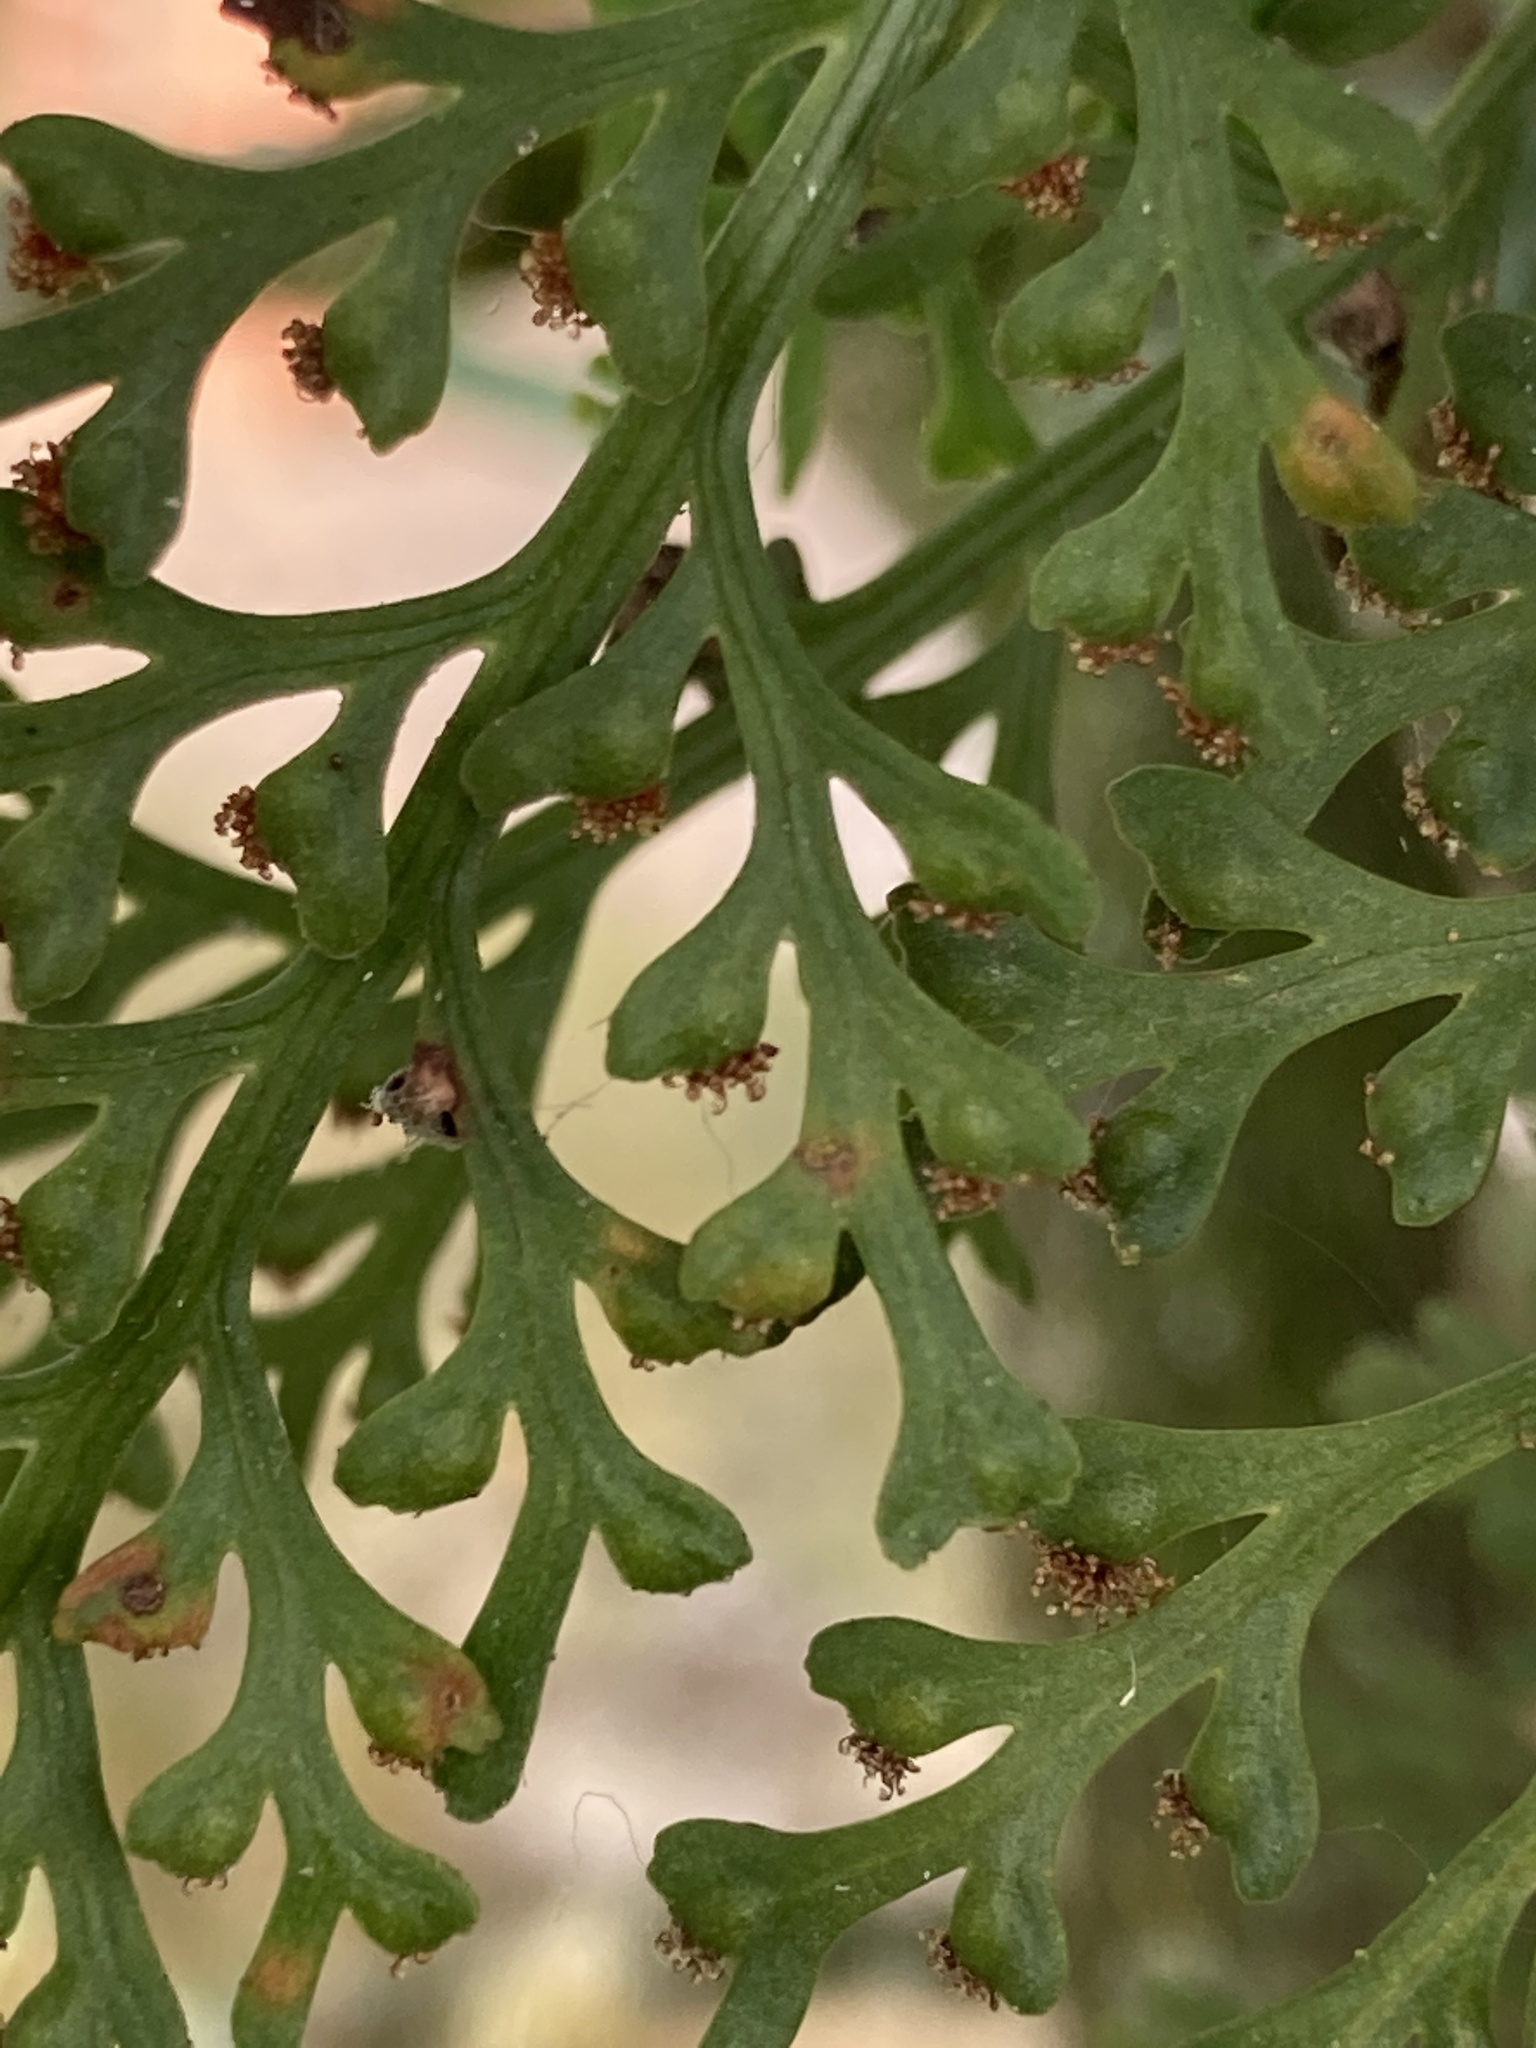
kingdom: Plantae
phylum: Tracheophyta
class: Polypodiopsida
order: Polypodiales
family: Aspleniaceae
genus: Asplenium
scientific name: Asplenium theciferum
